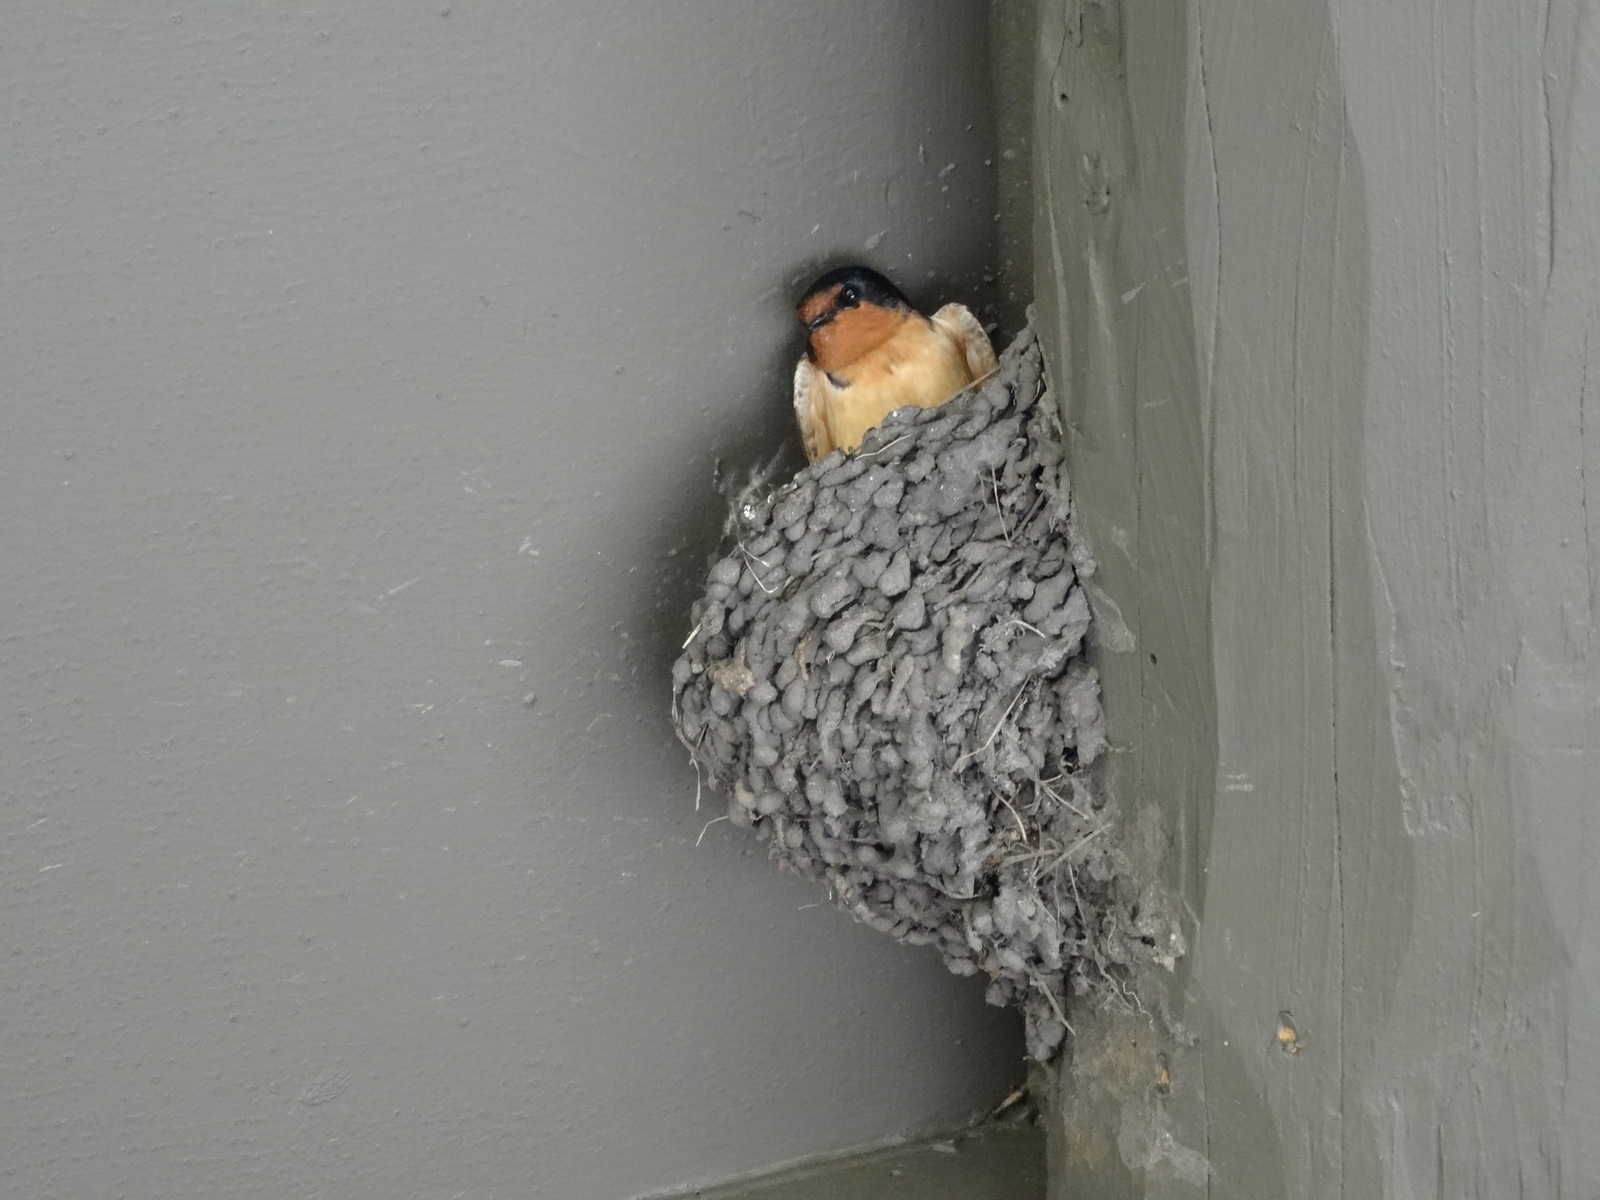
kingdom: Animalia
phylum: Chordata
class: Aves
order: Passeriformes
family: Hirundinidae
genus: Hirundo
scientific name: Hirundo rustica
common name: Barn swallow
